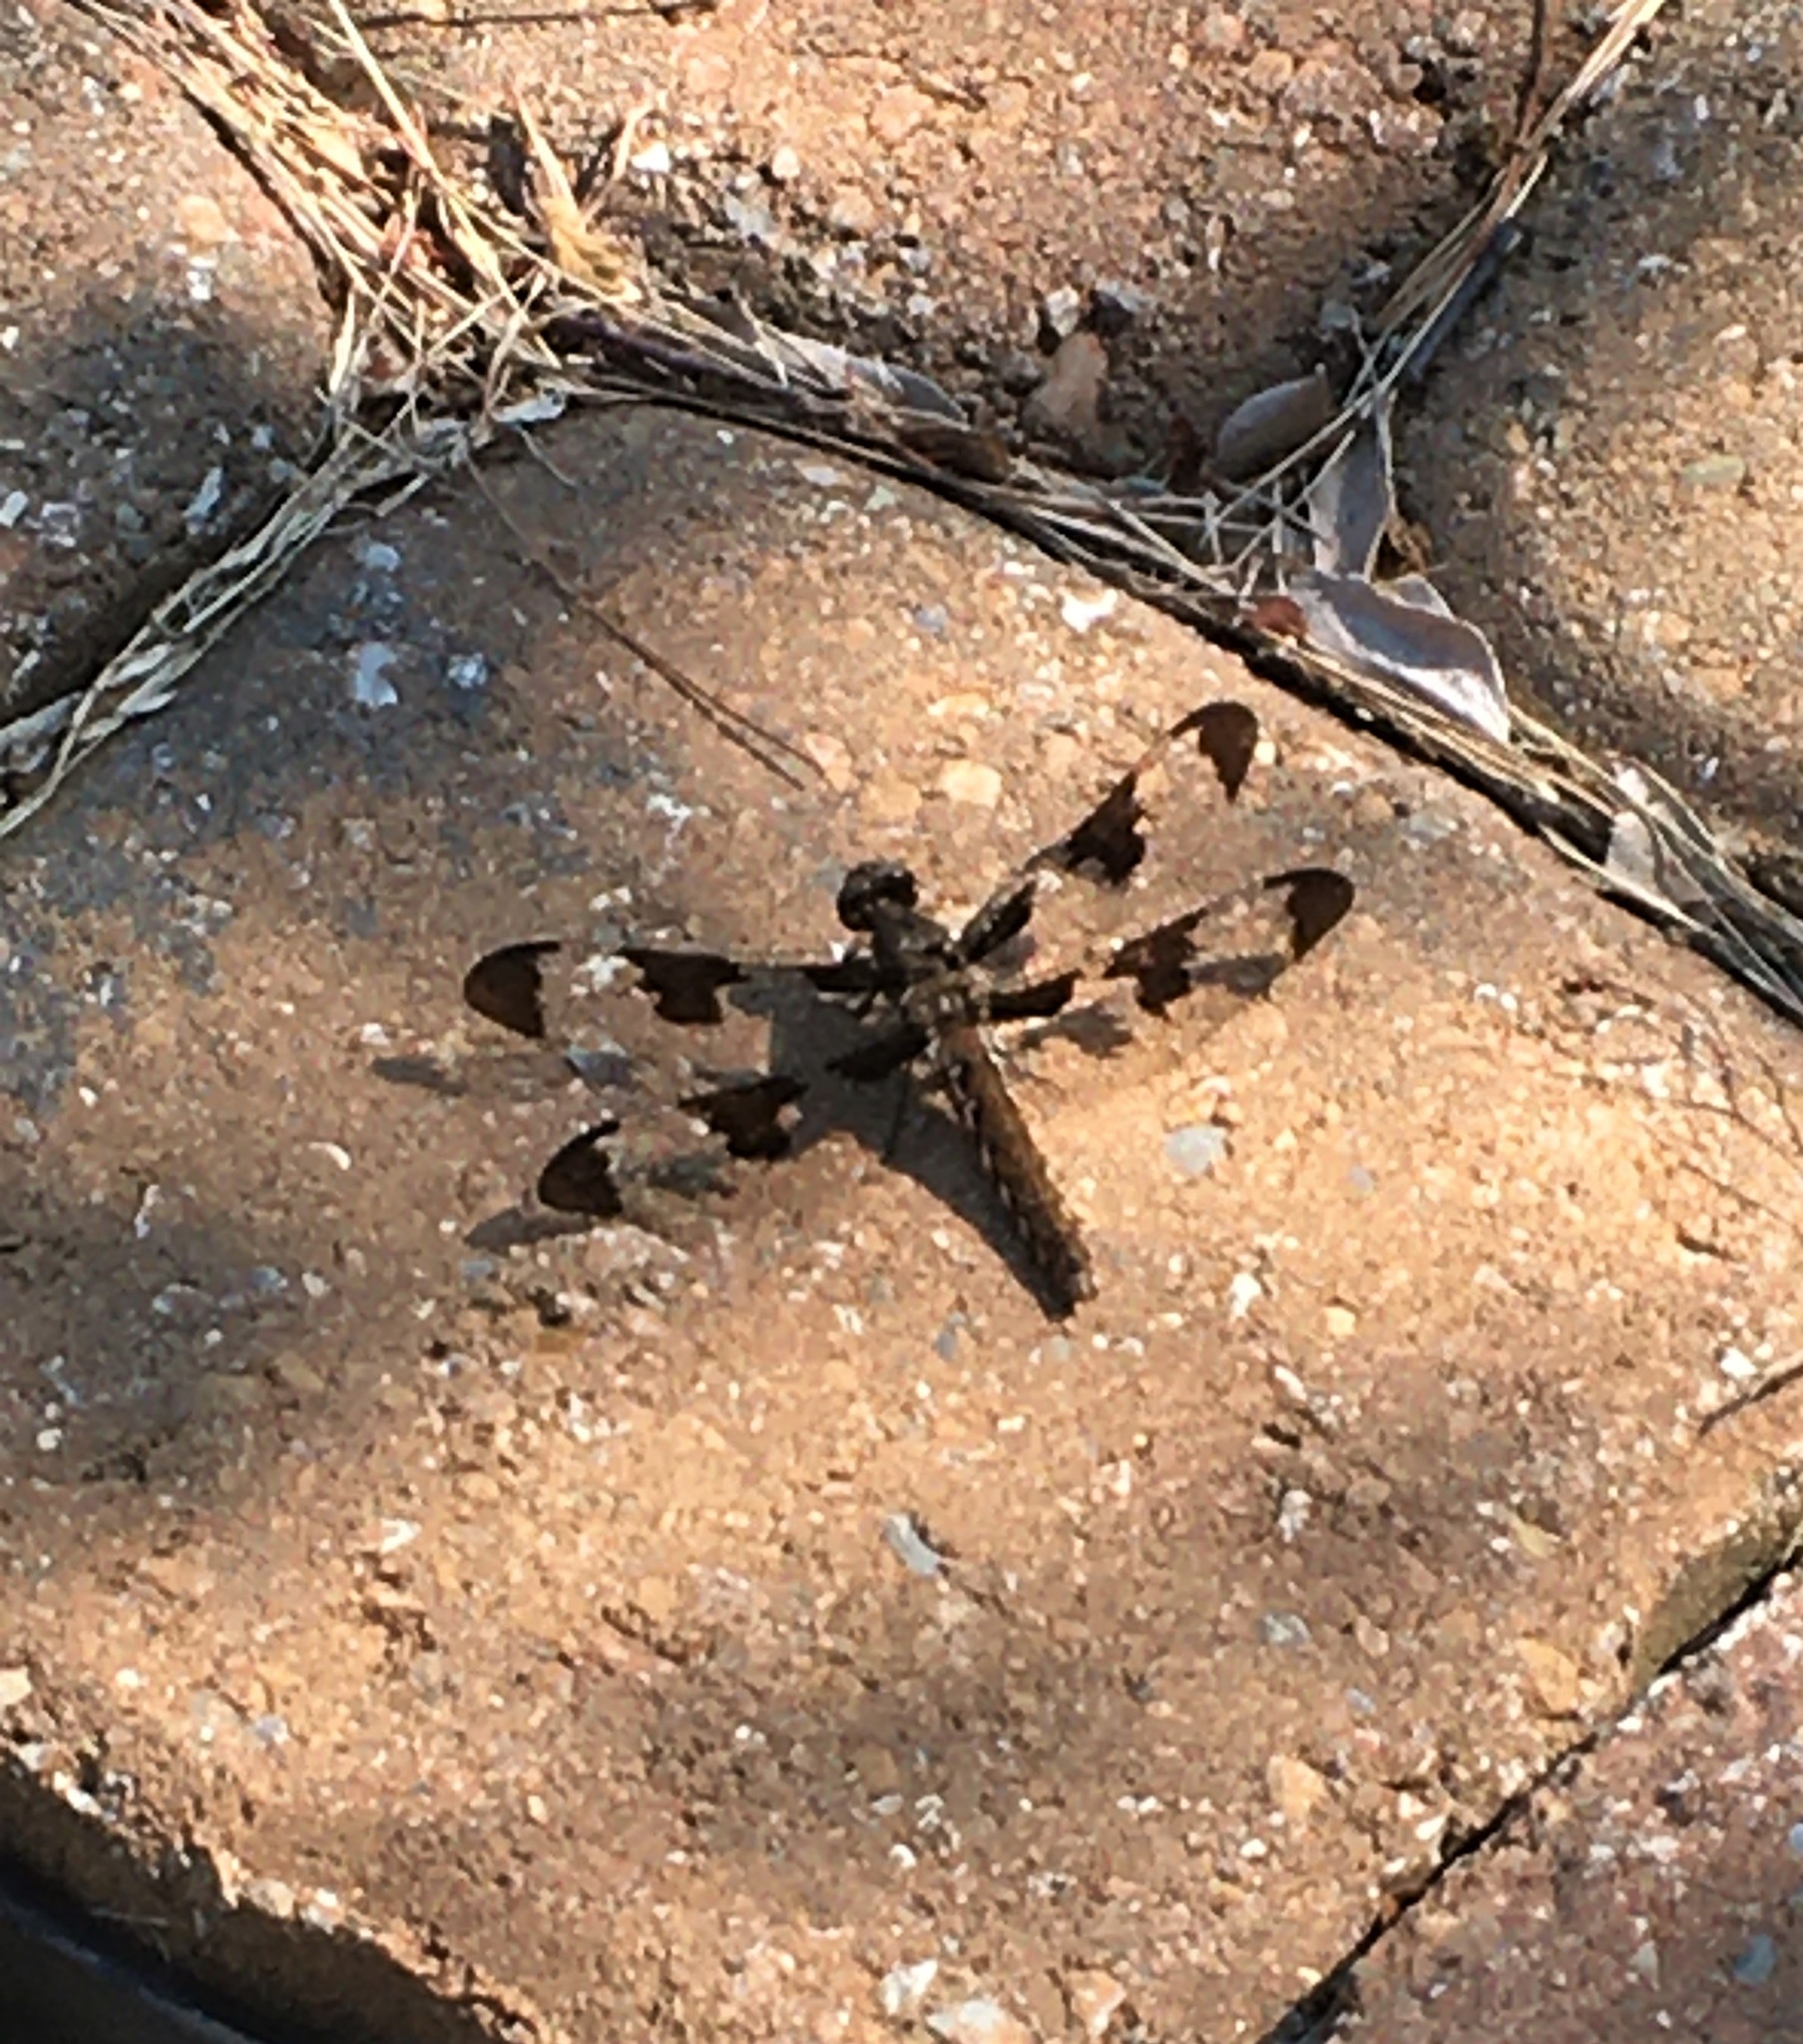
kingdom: Animalia
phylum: Arthropoda
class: Insecta
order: Odonata
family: Libellulidae
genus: Plathemis
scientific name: Plathemis lydia
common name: Common whitetail
